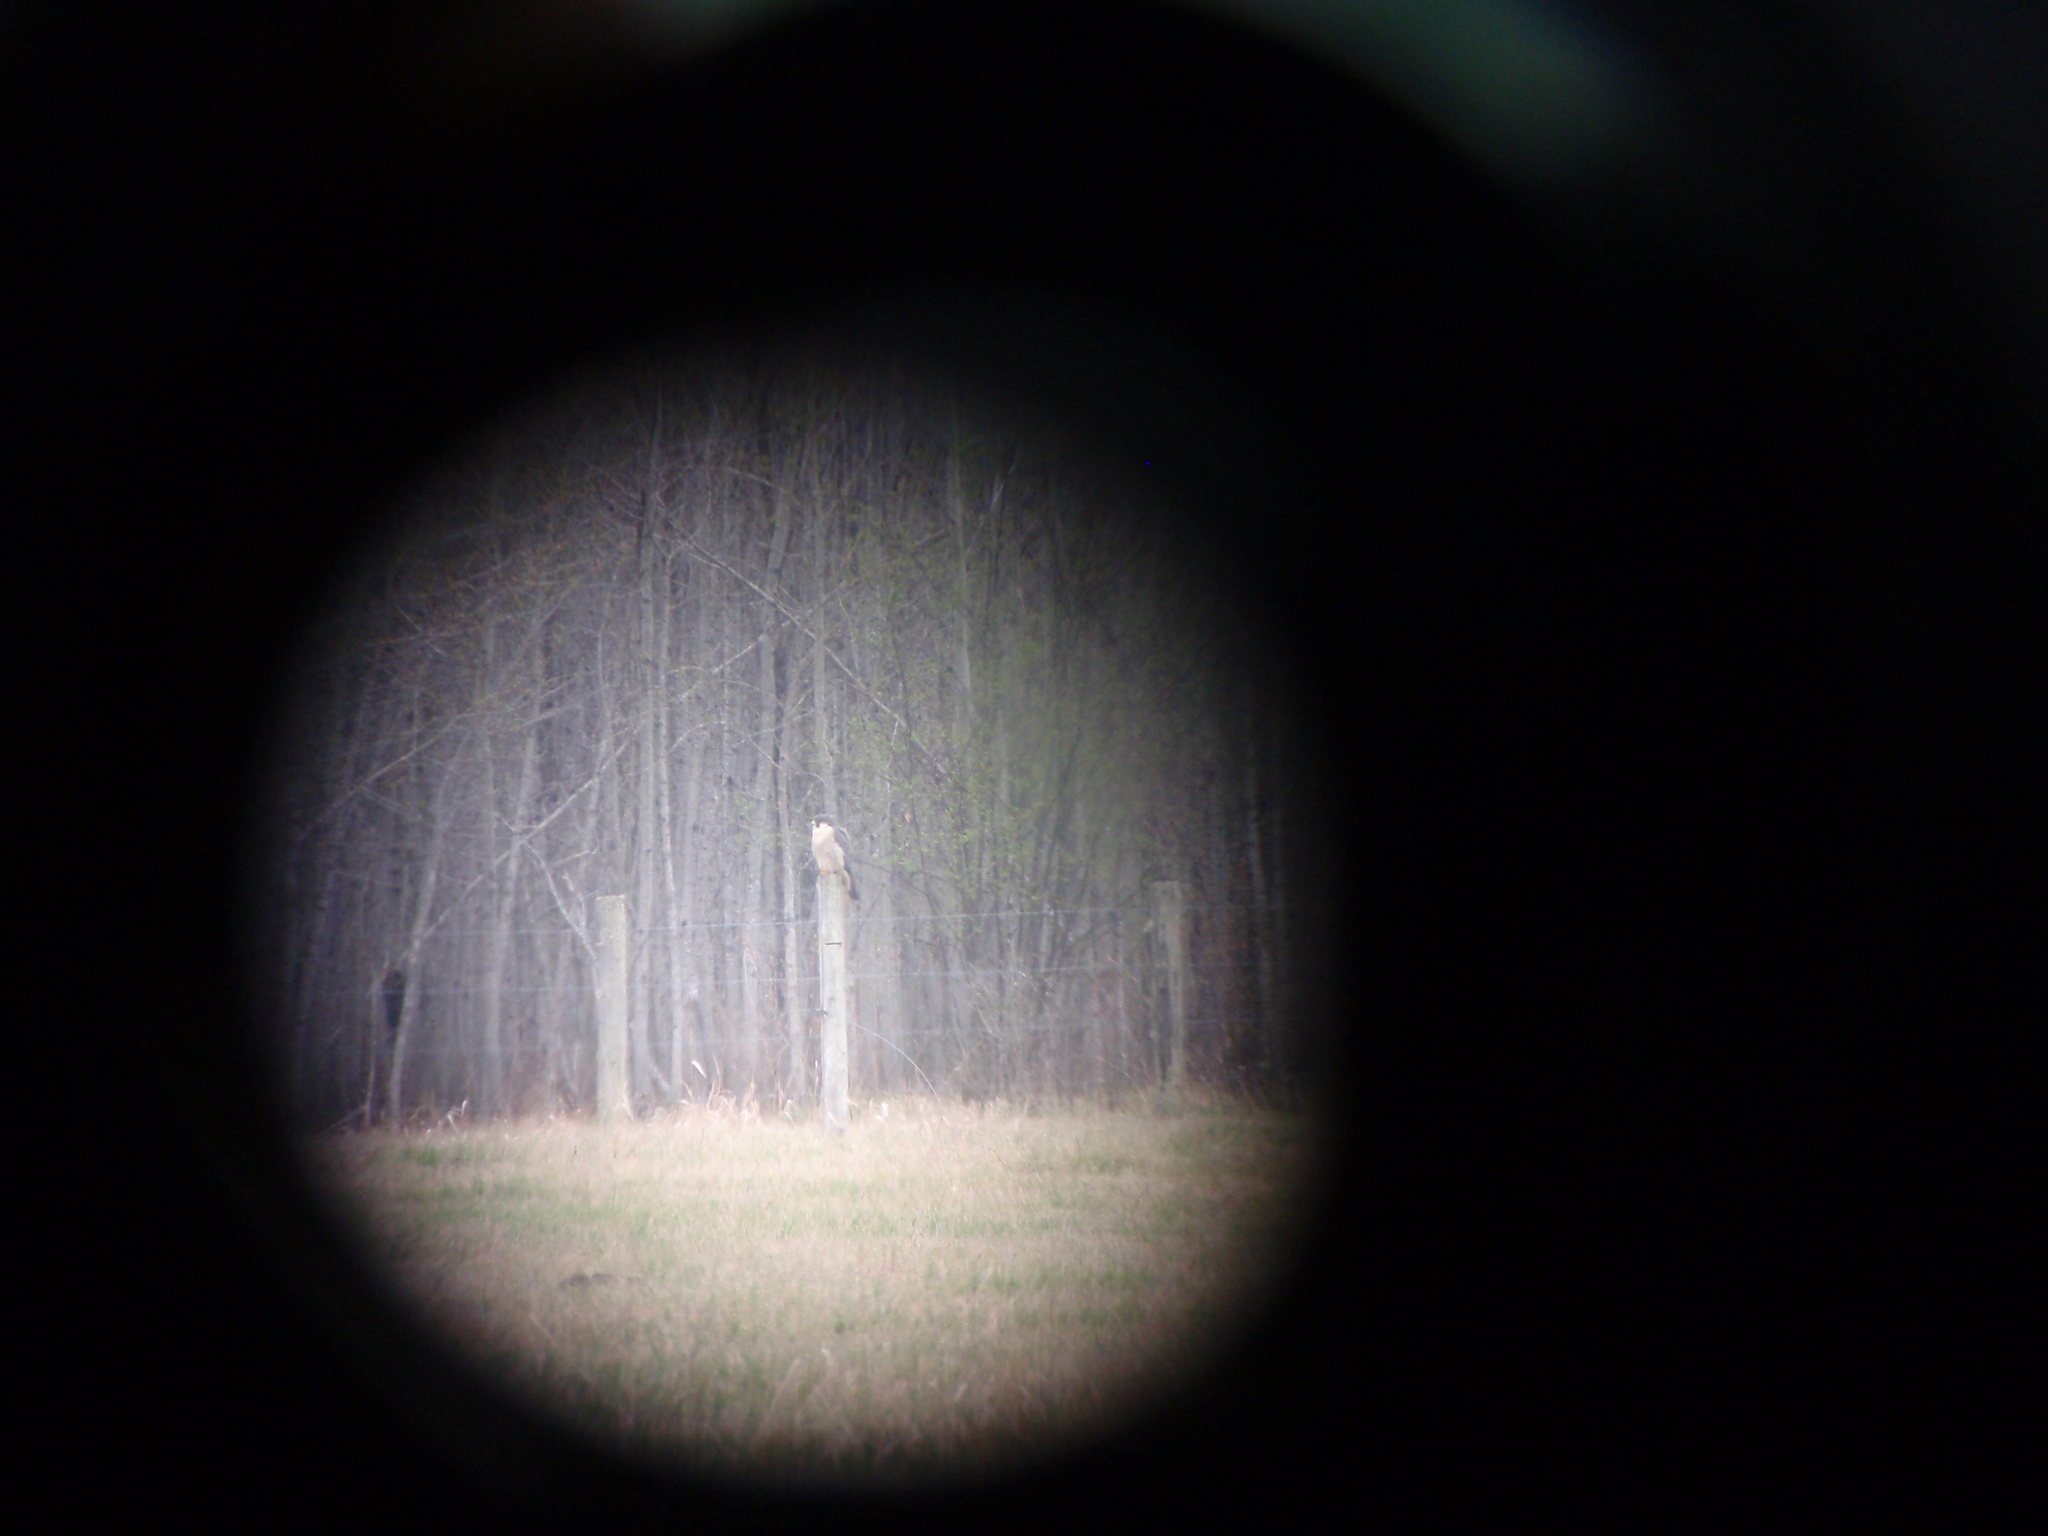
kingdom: Animalia
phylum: Chordata
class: Aves
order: Falconiformes
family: Falconidae
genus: Falco
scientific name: Falco peregrinus
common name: Peregrine falcon
